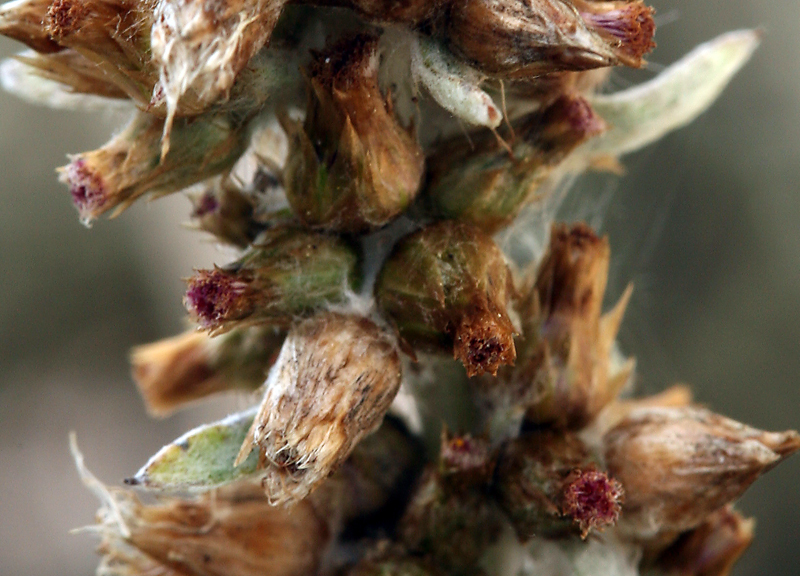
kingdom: Plantae
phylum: Tracheophyta
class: Magnoliopsida
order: Asterales
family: Asteraceae
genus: Gamochaeta
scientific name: Gamochaeta ustulata
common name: Pacific cudweed
